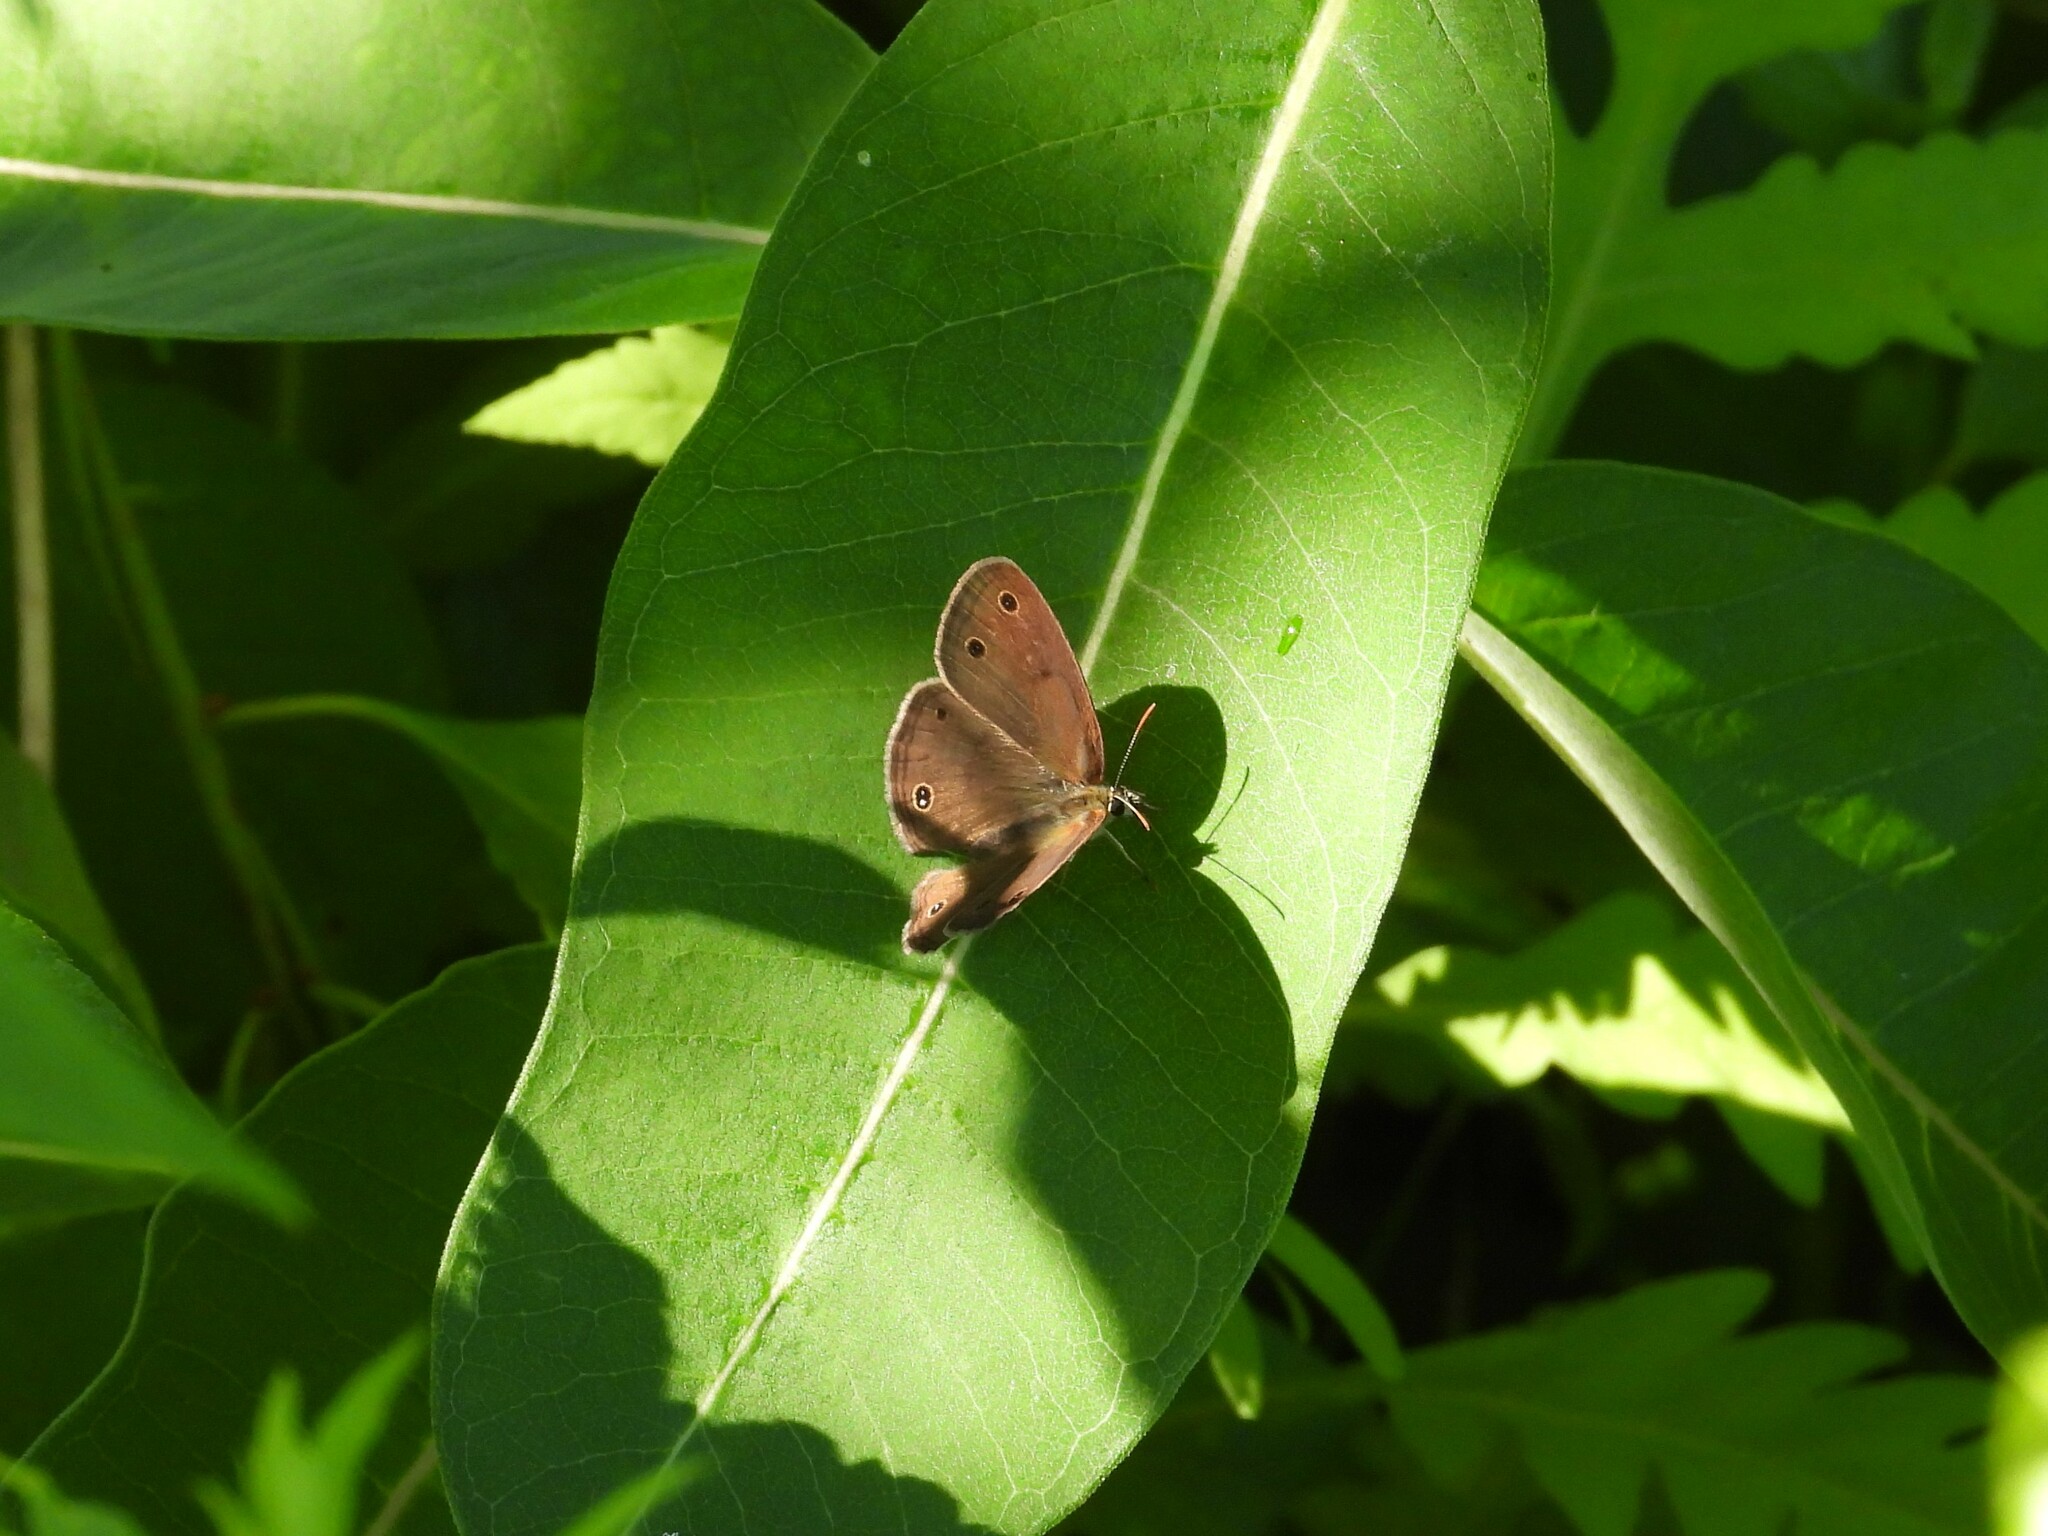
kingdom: Animalia
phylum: Arthropoda
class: Insecta
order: Lepidoptera
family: Nymphalidae
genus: Euptychia
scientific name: Euptychia cymela
